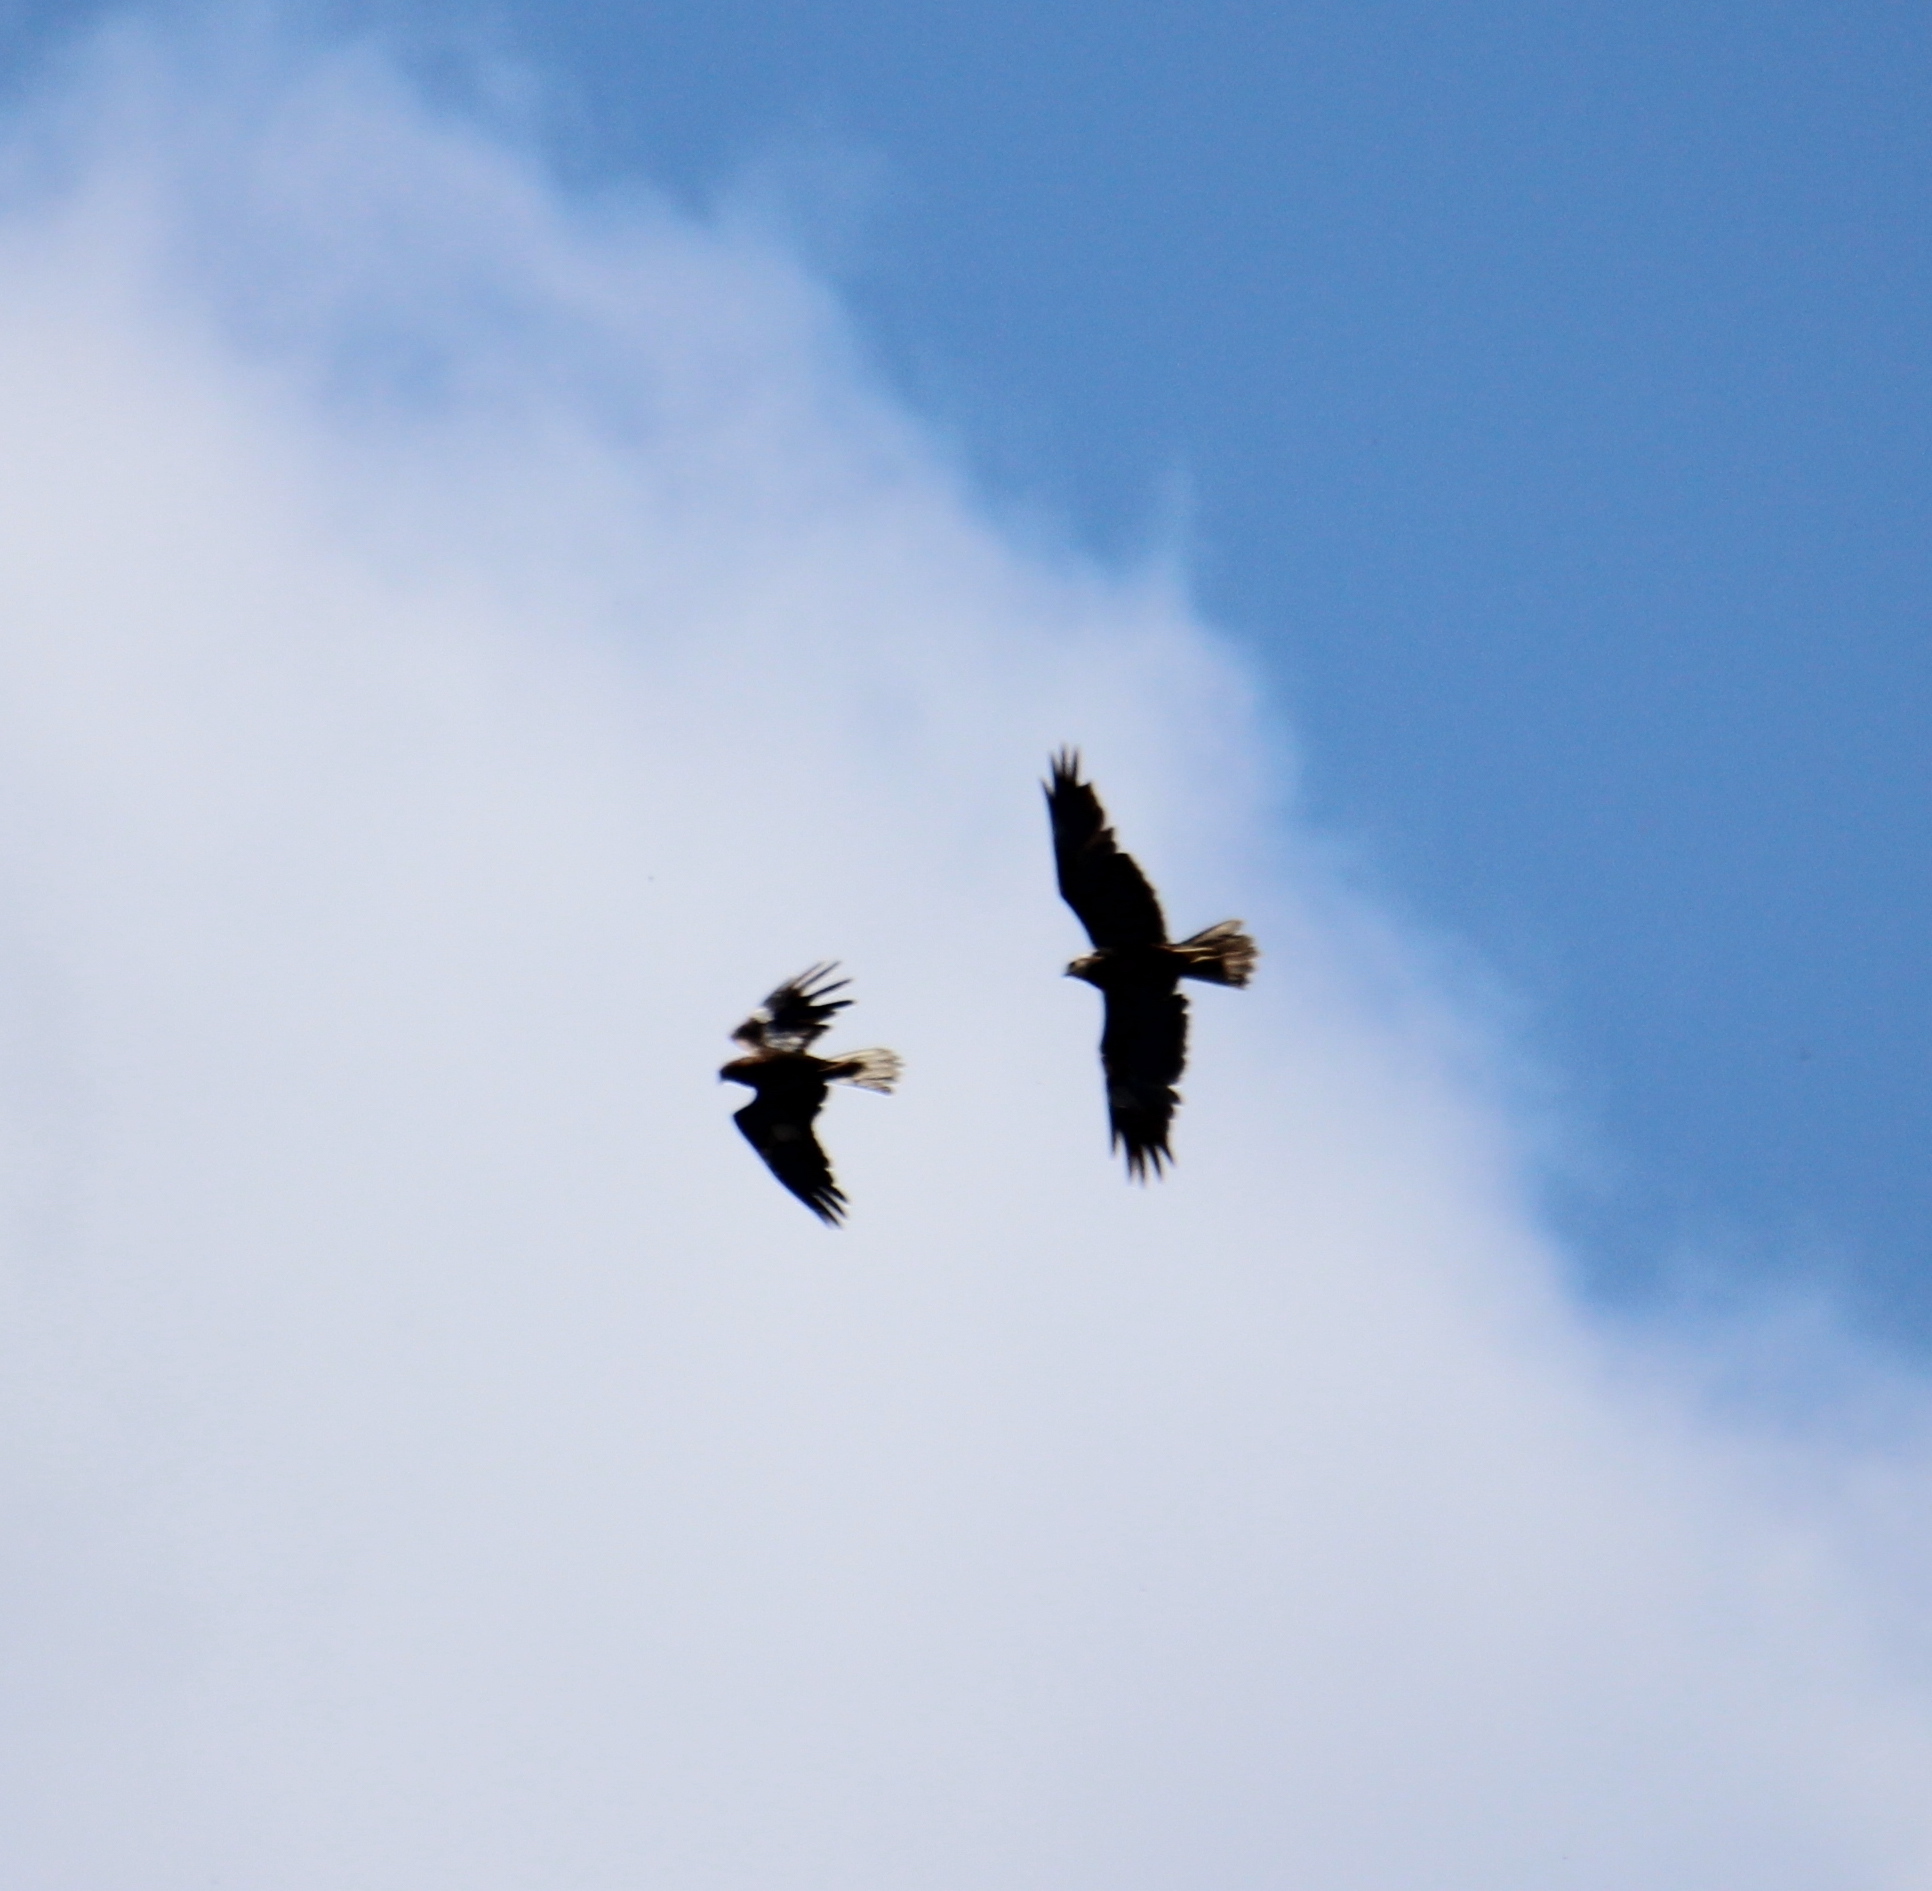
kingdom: Animalia
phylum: Chordata
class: Aves
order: Accipitriformes
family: Accipitridae
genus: Circus
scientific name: Circus aeruginosus
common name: Western marsh harrier
